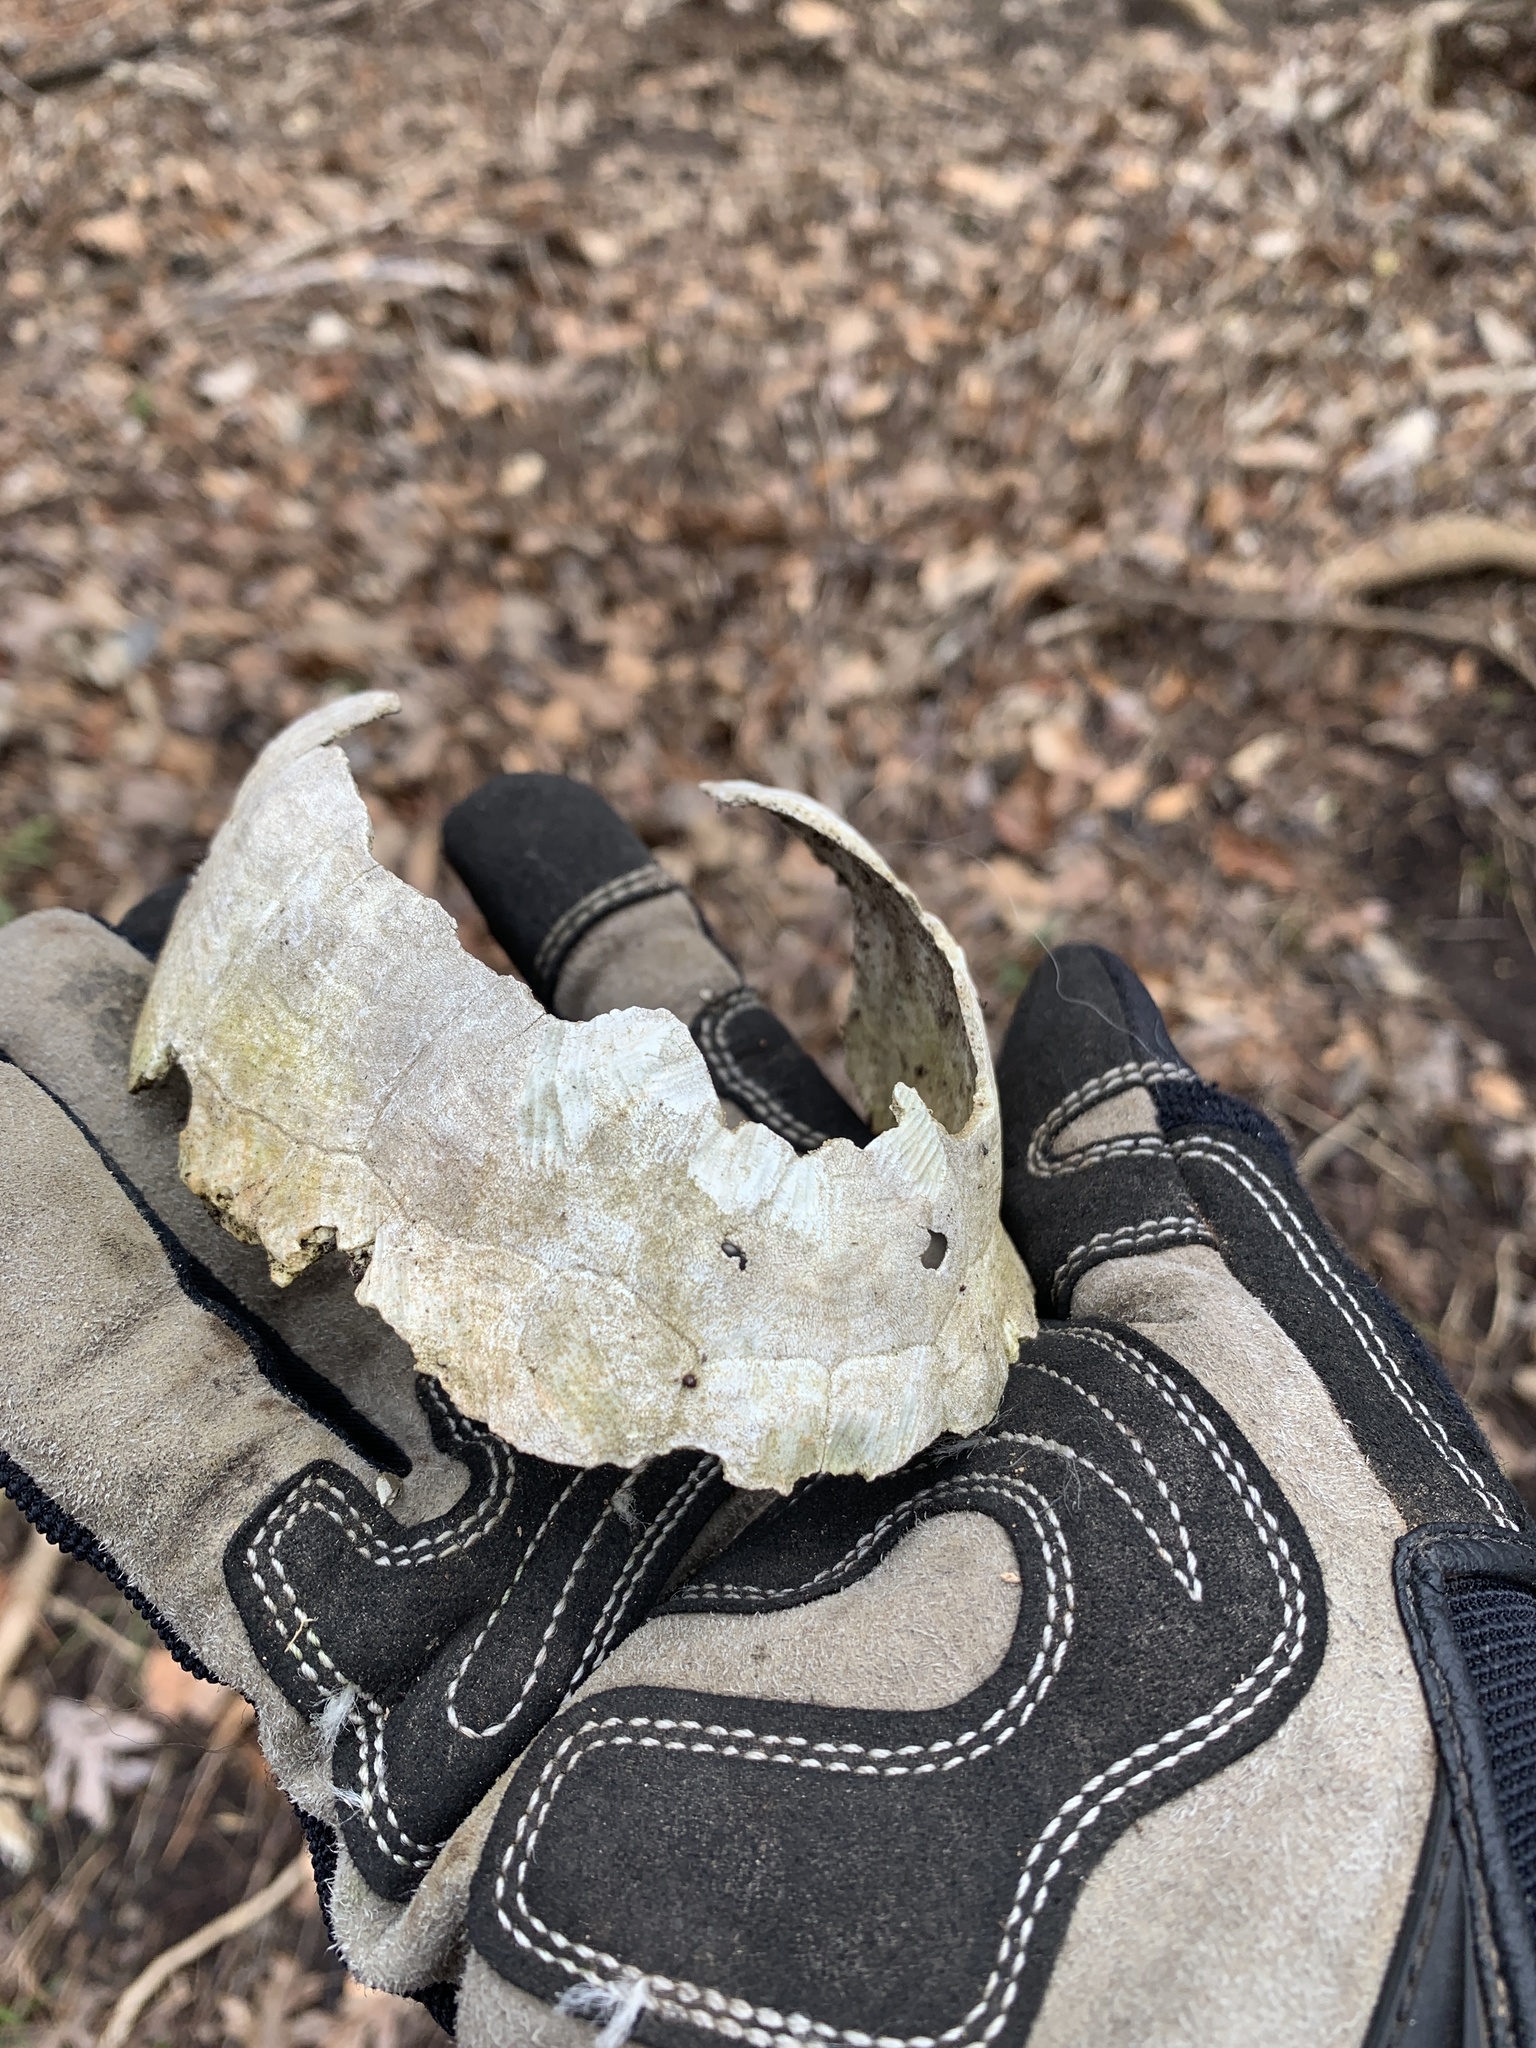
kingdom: Animalia
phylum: Chordata
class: Testudines
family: Emydidae
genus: Terrapene
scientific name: Terrapene carolina
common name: Common box turtle
